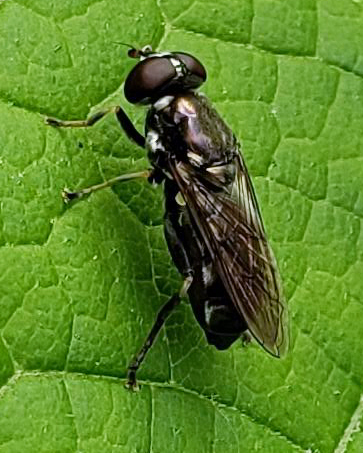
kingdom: Animalia
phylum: Arthropoda
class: Insecta
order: Diptera
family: Syrphidae
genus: Xylota
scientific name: Xylota
